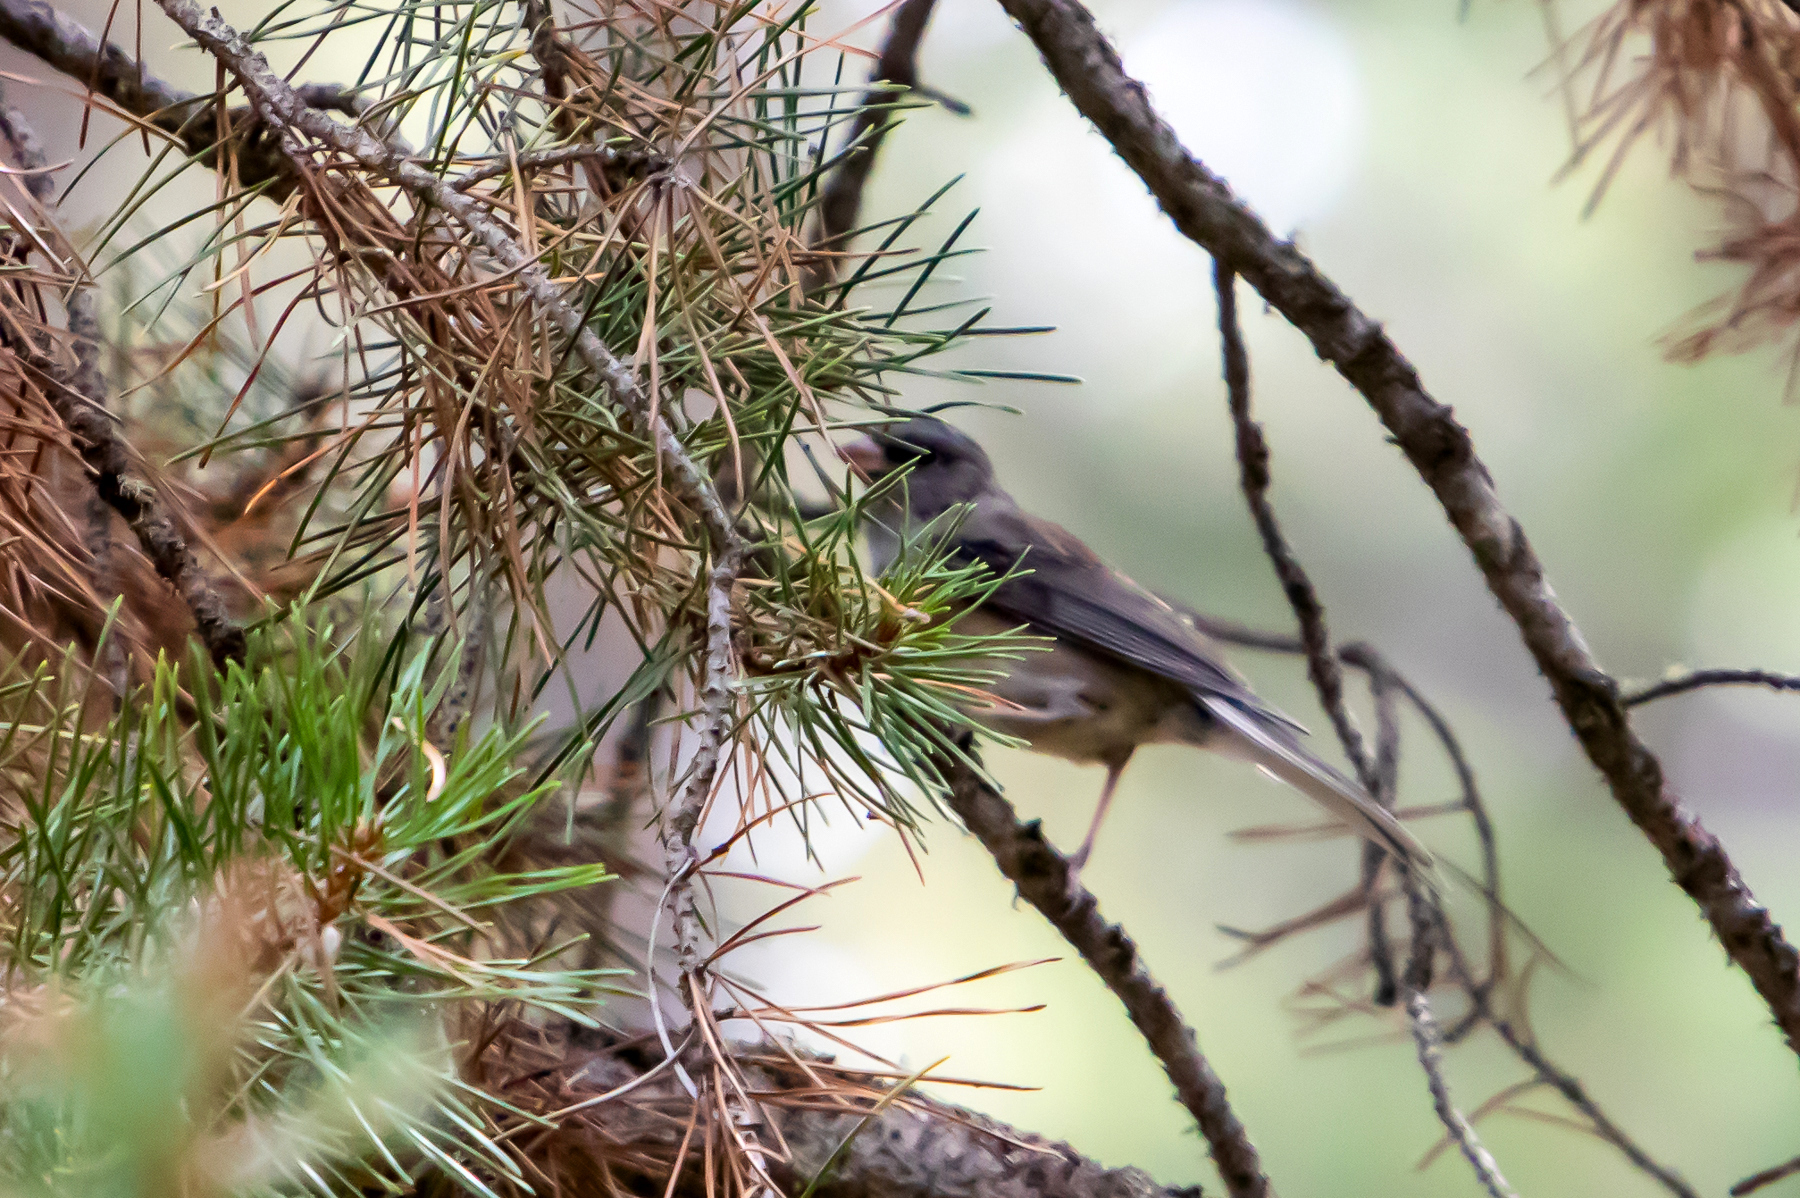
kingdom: Animalia
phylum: Chordata
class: Aves
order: Passeriformes
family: Passerellidae
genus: Junco
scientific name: Junco hyemalis
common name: Dark-eyed junco
